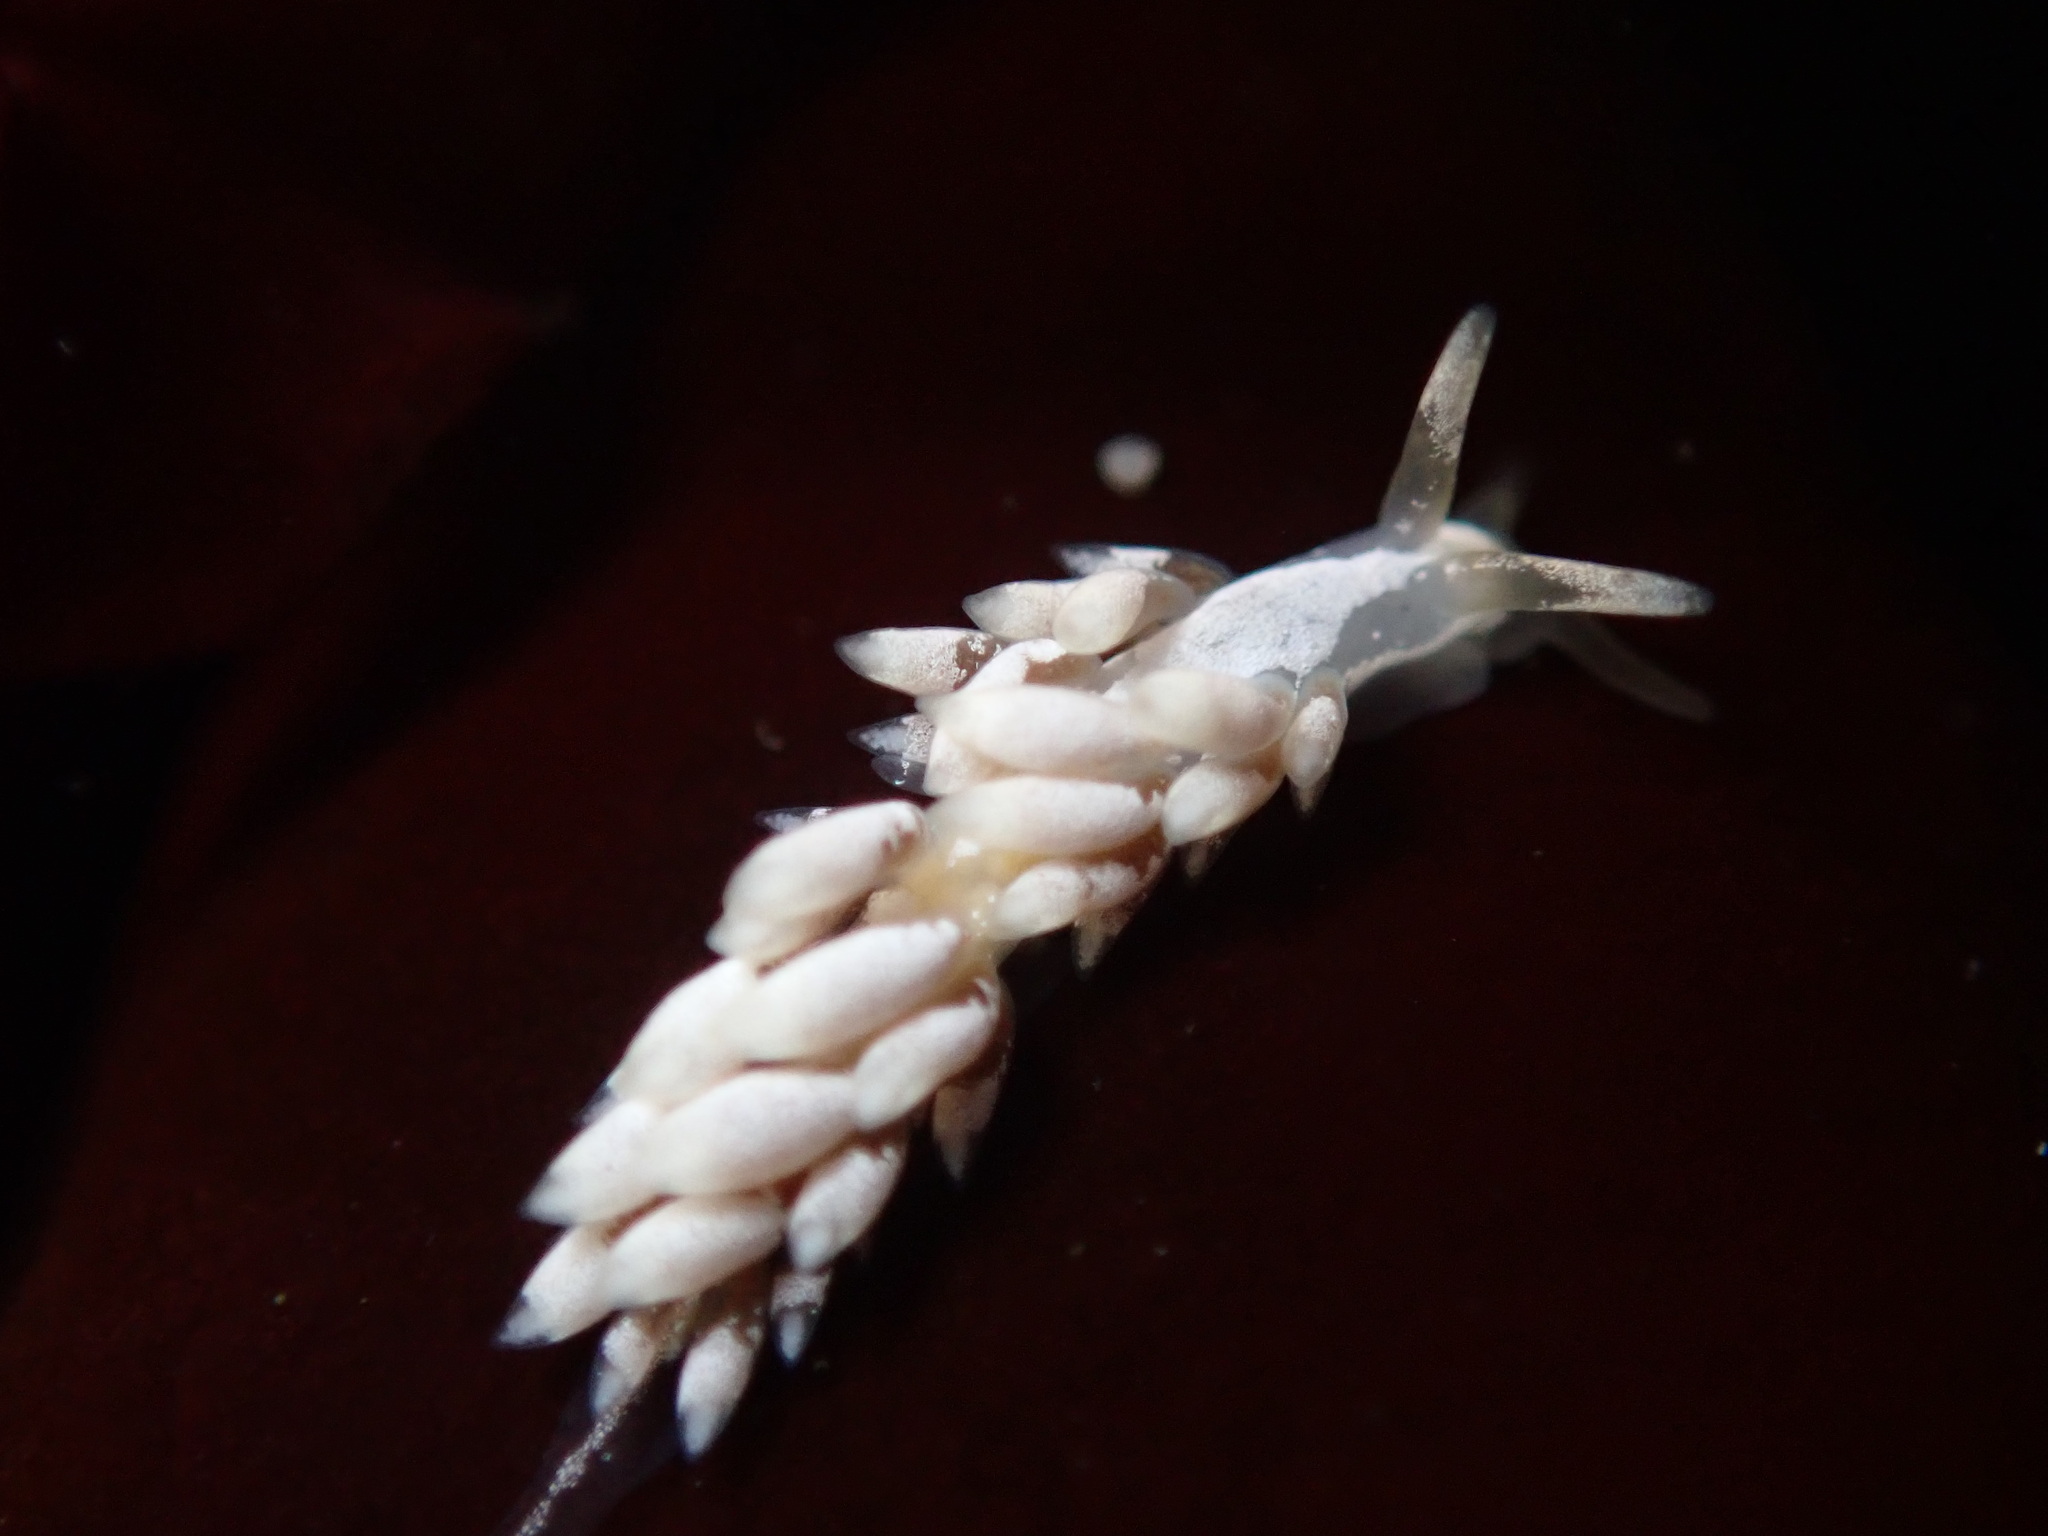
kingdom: Animalia
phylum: Mollusca
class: Gastropoda
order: Nudibranchia
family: Trinchesiidae
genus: Trinchesia
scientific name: Trinchesia albocrusta
